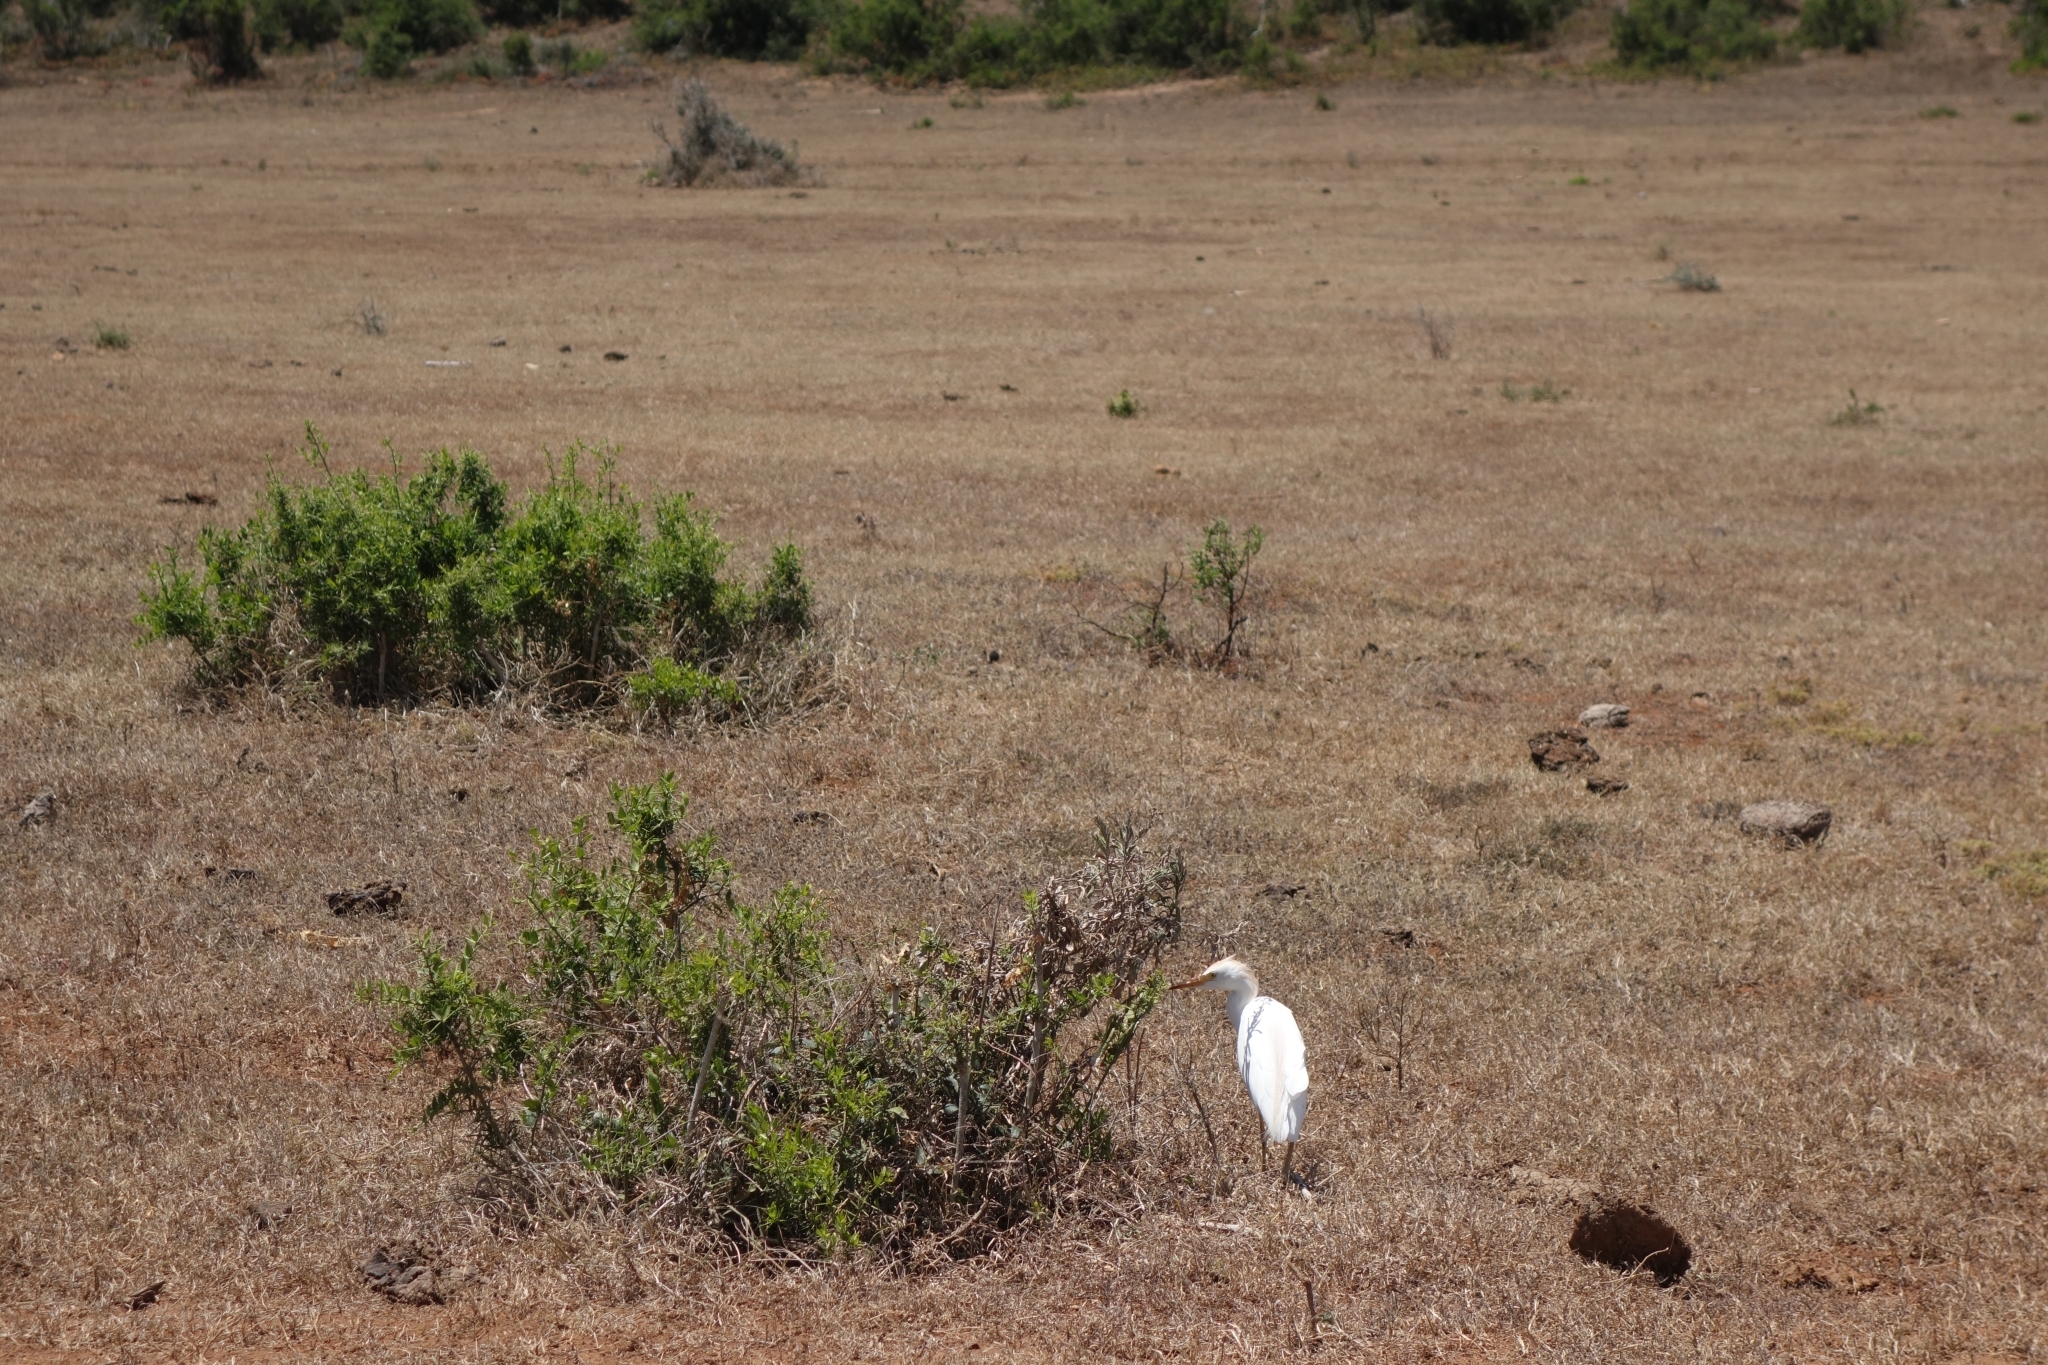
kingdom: Animalia
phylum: Chordata
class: Aves
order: Pelecaniformes
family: Ardeidae
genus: Bubulcus
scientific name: Bubulcus ibis
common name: Cattle egret
